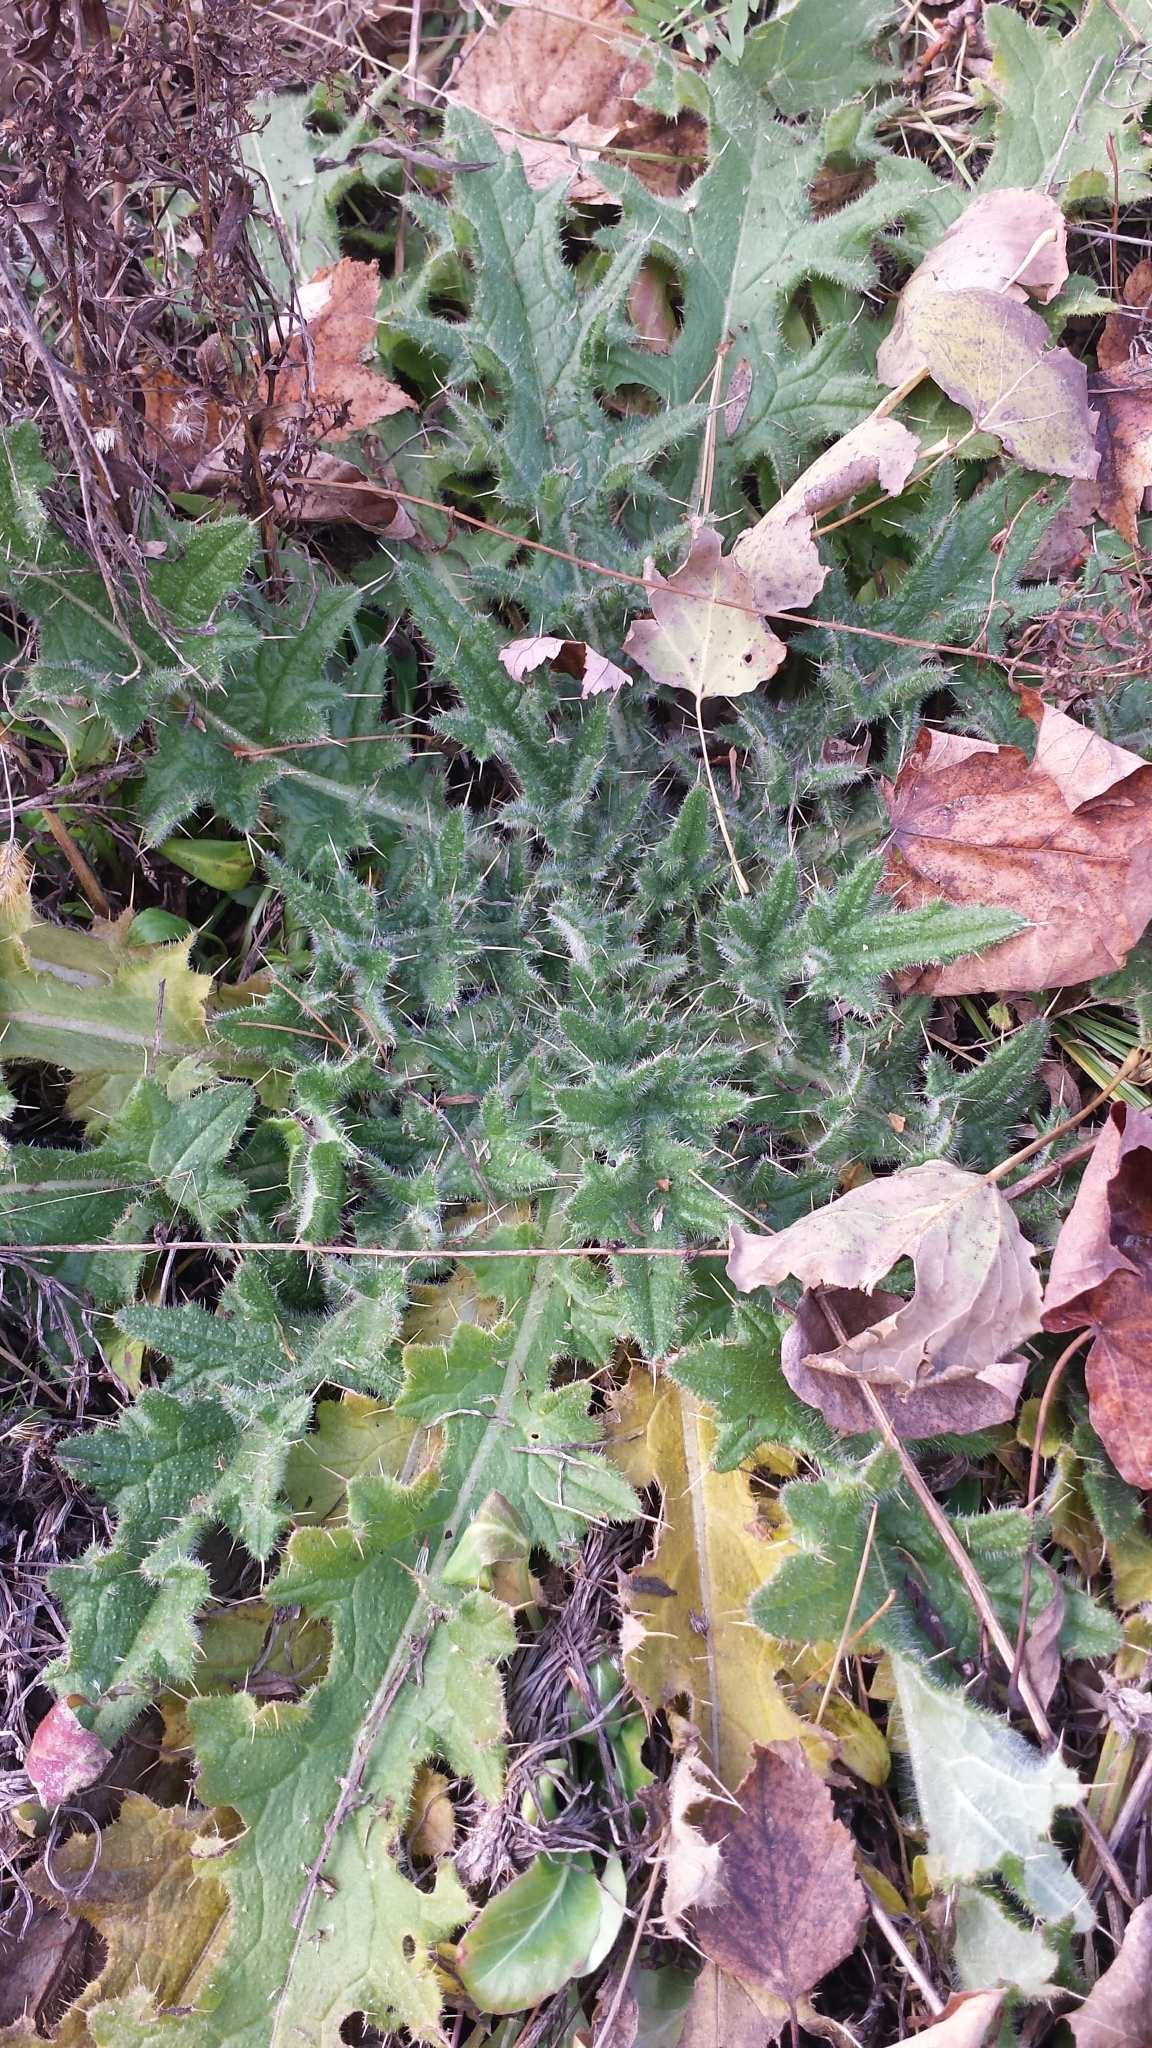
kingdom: Plantae
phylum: Tracheophyta
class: Magnoliopsida
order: Asterales
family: Asteraceae
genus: Cirsium
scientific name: Cirsium vulgare
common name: Bull thistle
